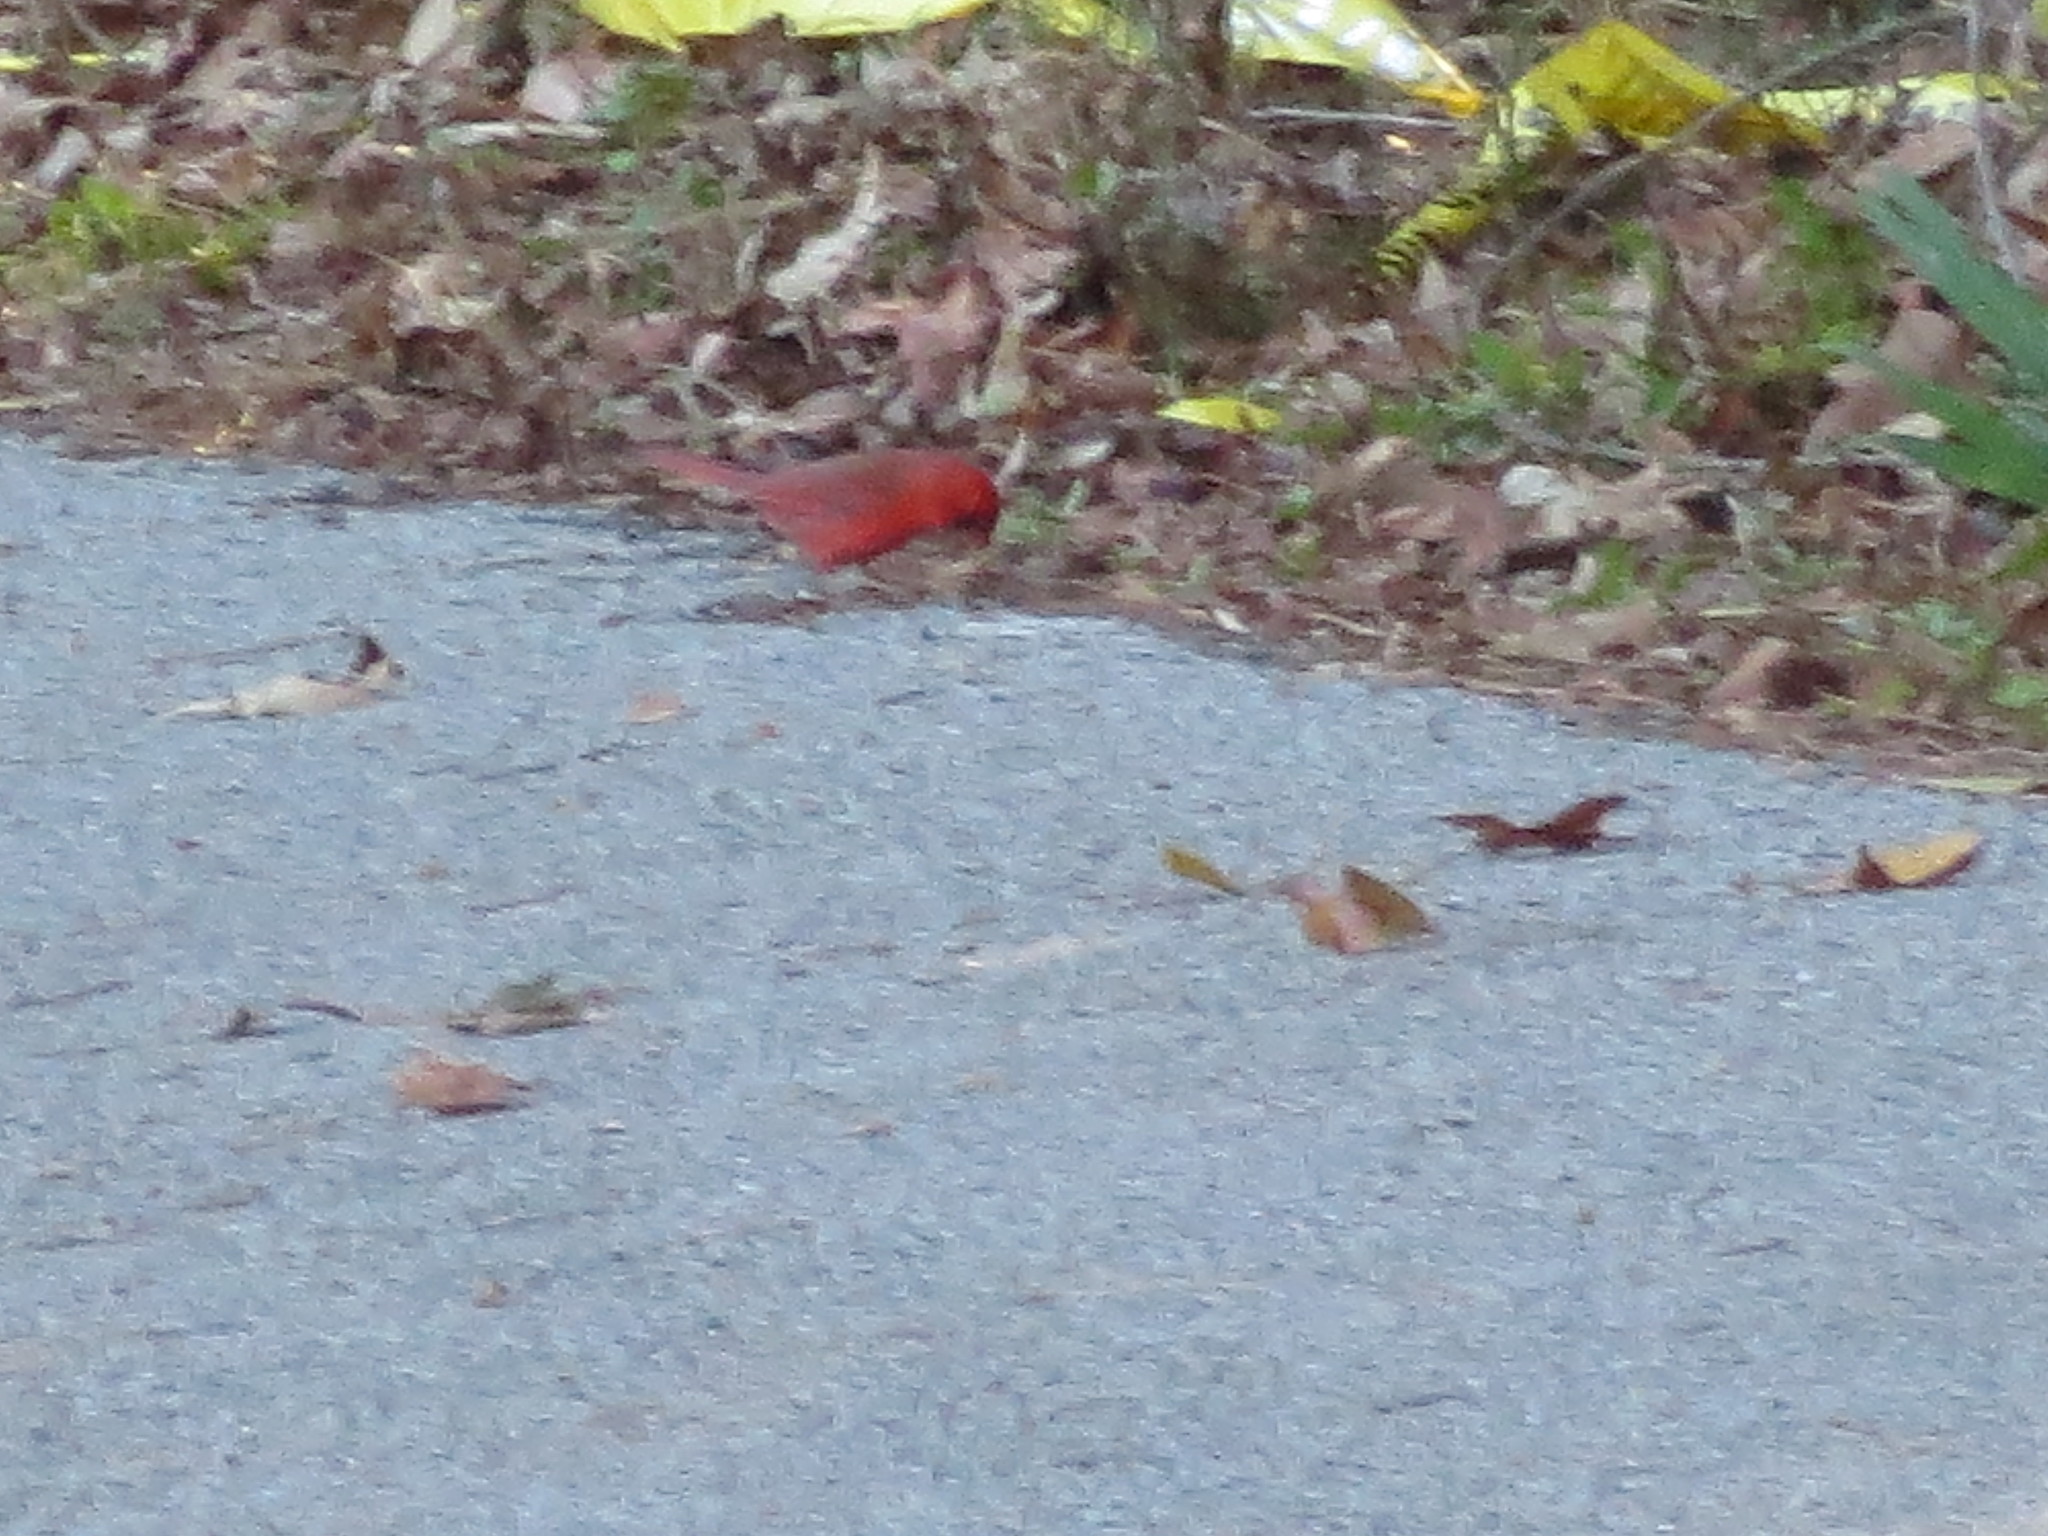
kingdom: Animalia
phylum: Chordata
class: Aves
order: Passeriformes
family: Cardinalidae
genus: Cardinalis
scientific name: Cardinalis cardinalis
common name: Northern cardinal
